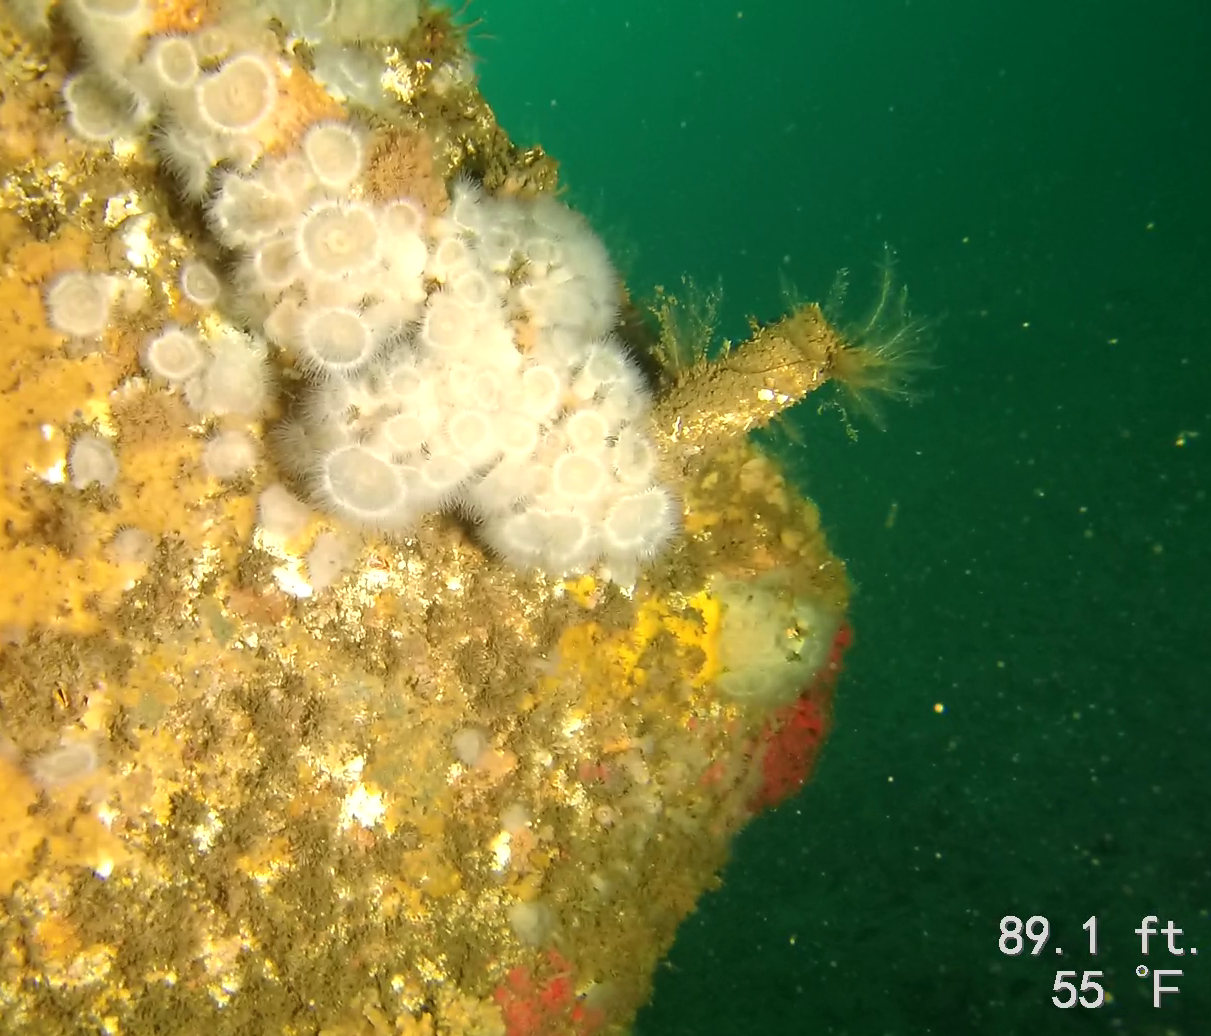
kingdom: Animalia
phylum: Cnidaria
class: Anthozoa
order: Actiniaria
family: Metridiidae
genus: Metridium
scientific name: Metridium senile
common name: Clonal plumose anemone
